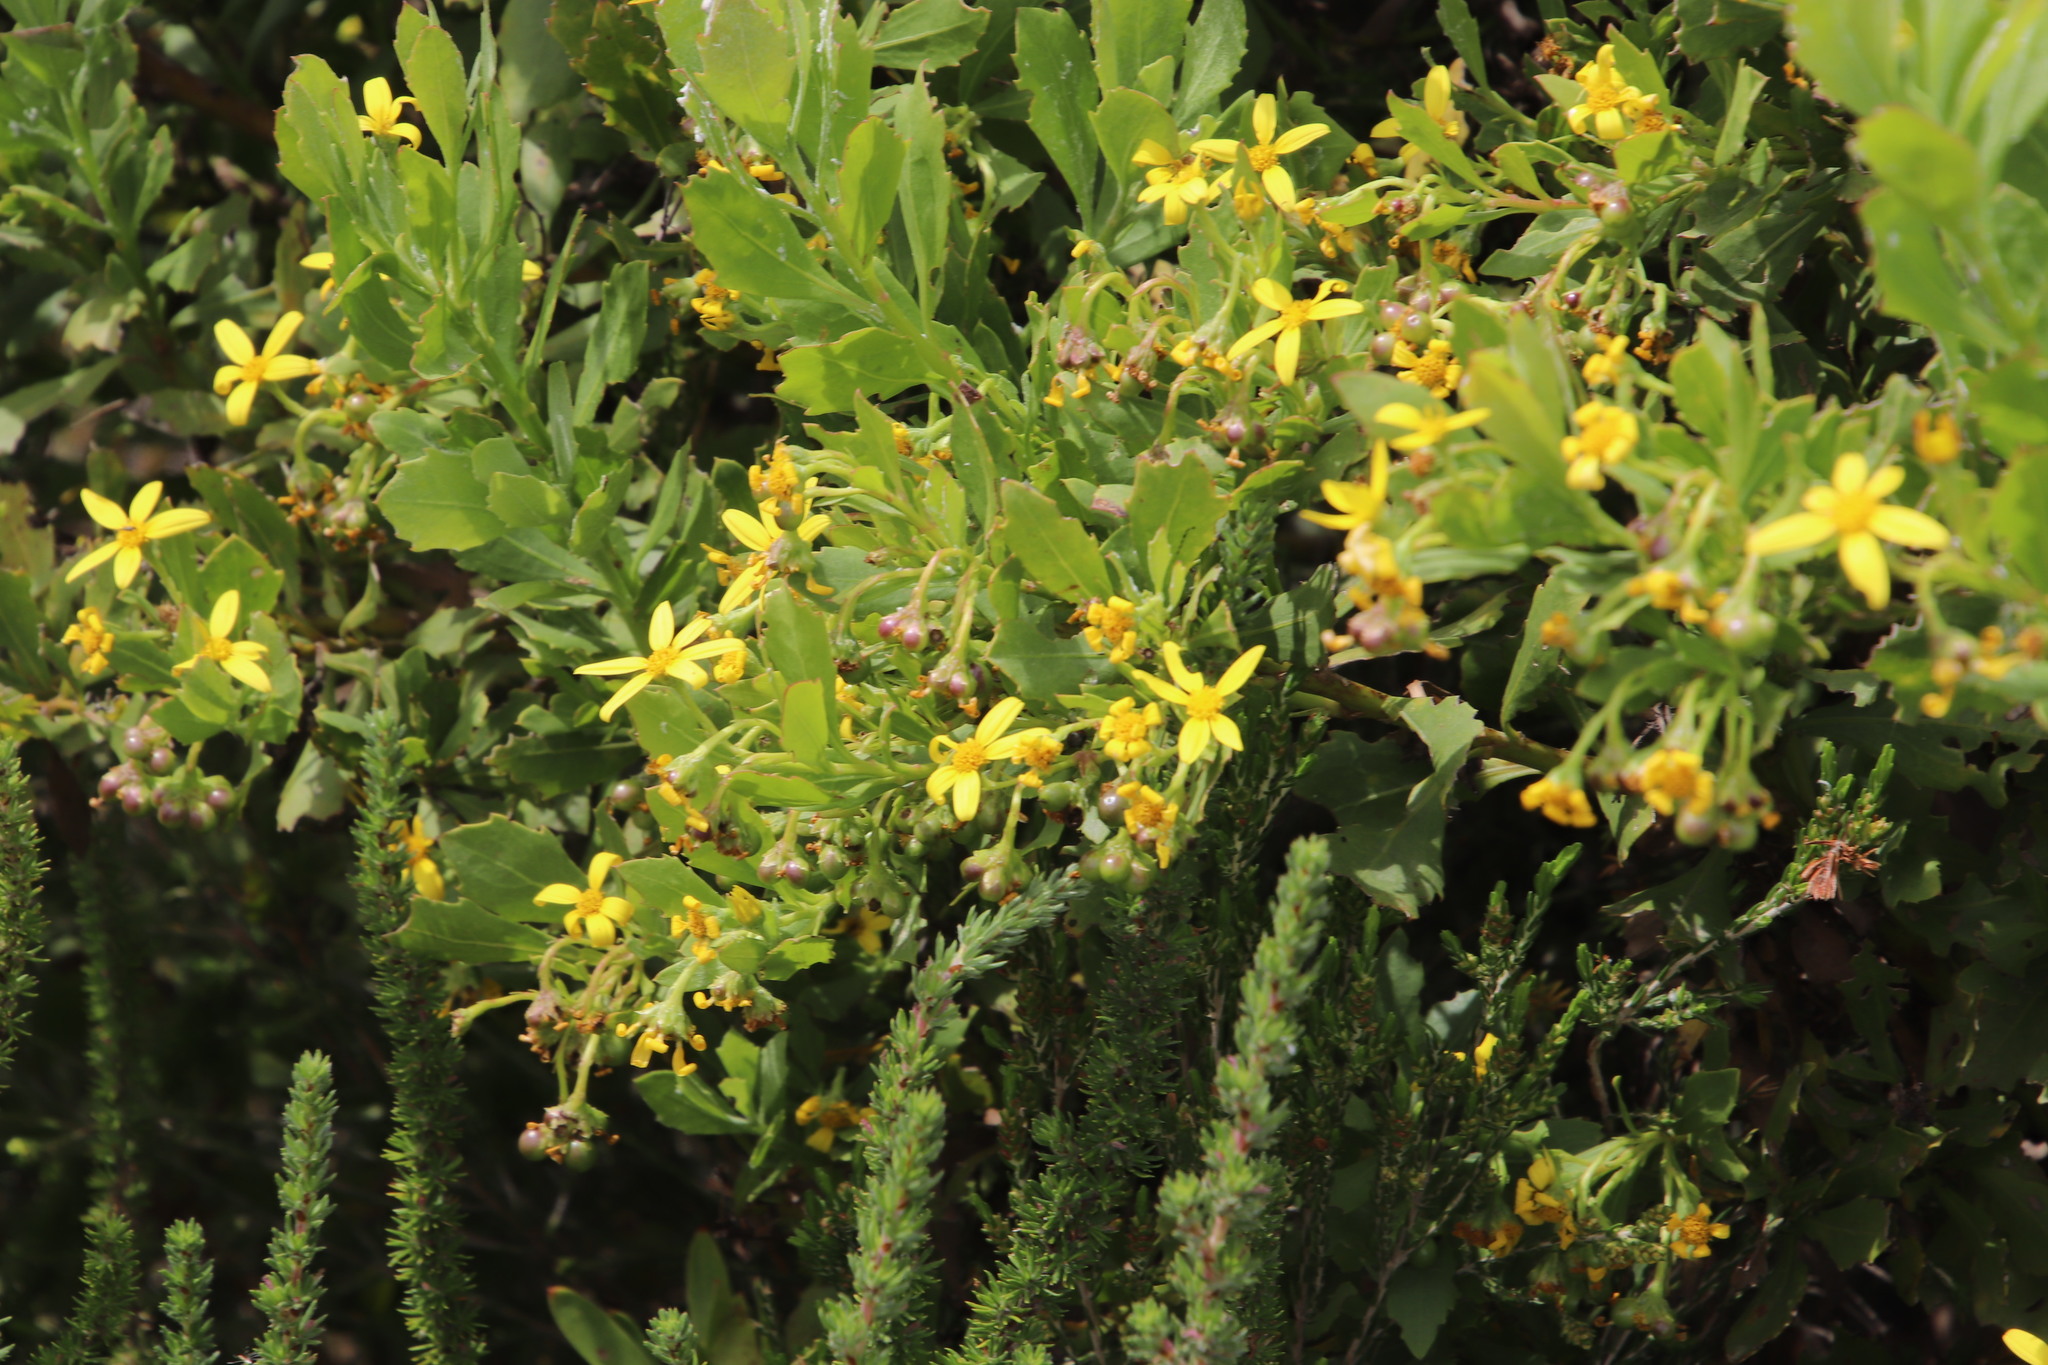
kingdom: Plantae
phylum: Tracheophyta
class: Magnoliopsida
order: Asterales
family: Asteraceae
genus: Osteospermum
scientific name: Osteospermum moniliferum
